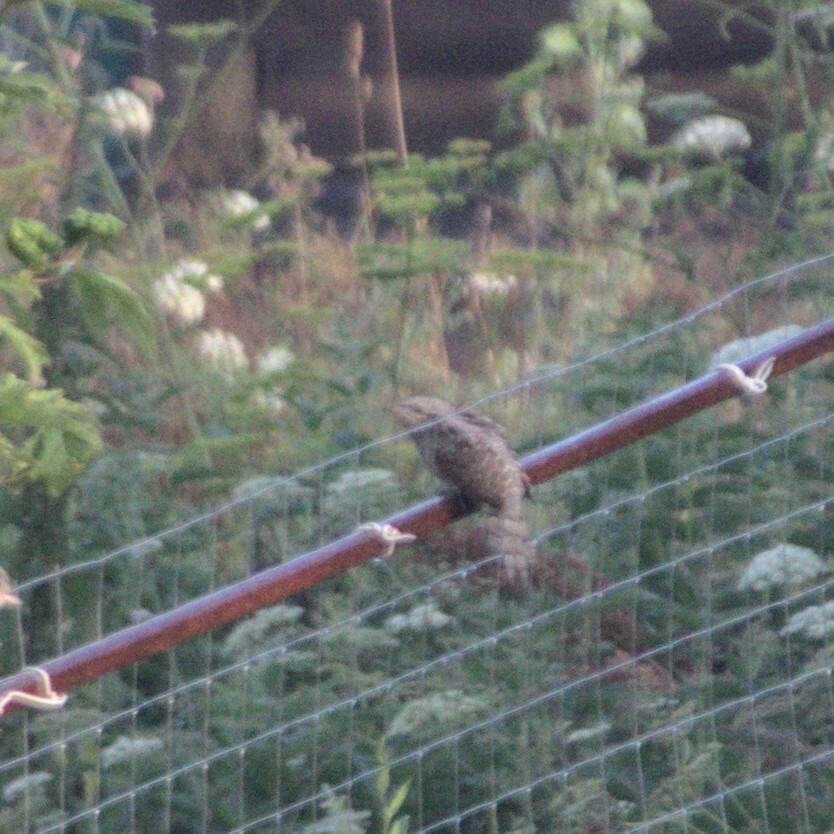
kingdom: Animalia
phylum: Chordata
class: Aves
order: Piciformes
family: Picidae
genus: Jynx
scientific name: Jynx torquilla
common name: Eurasian wryneck
